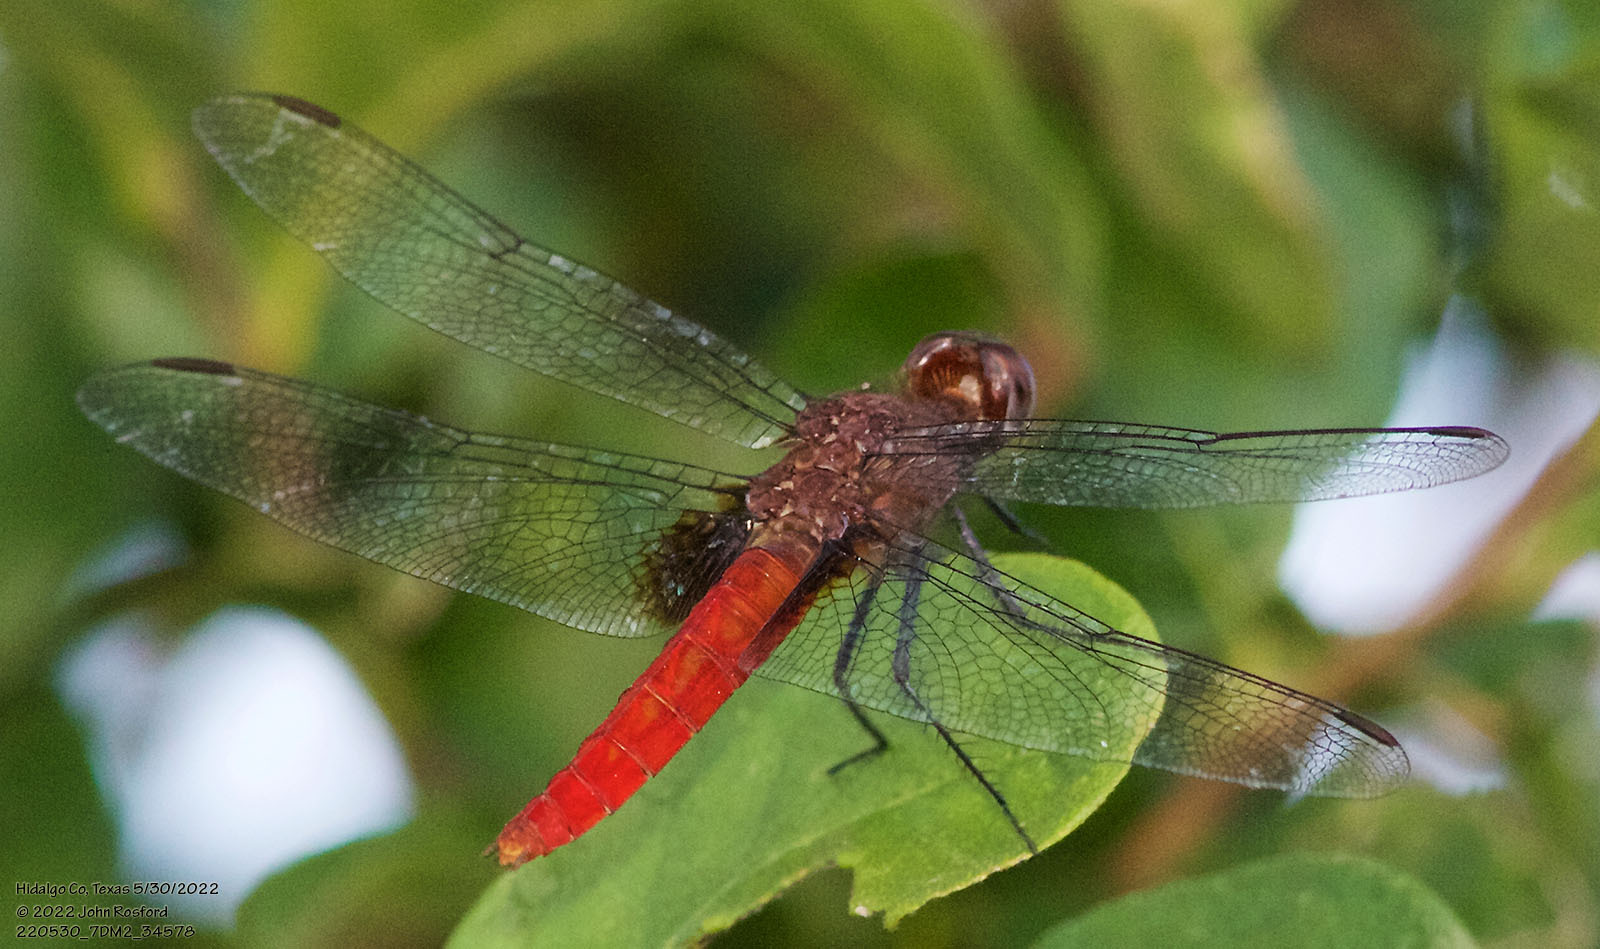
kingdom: Animalia
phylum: Arthropoda
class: Insecta
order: Odonata
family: Libellulidae
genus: Planiplax
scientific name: Planiplax sanguiniventris
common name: Mexican scarlet-tail
